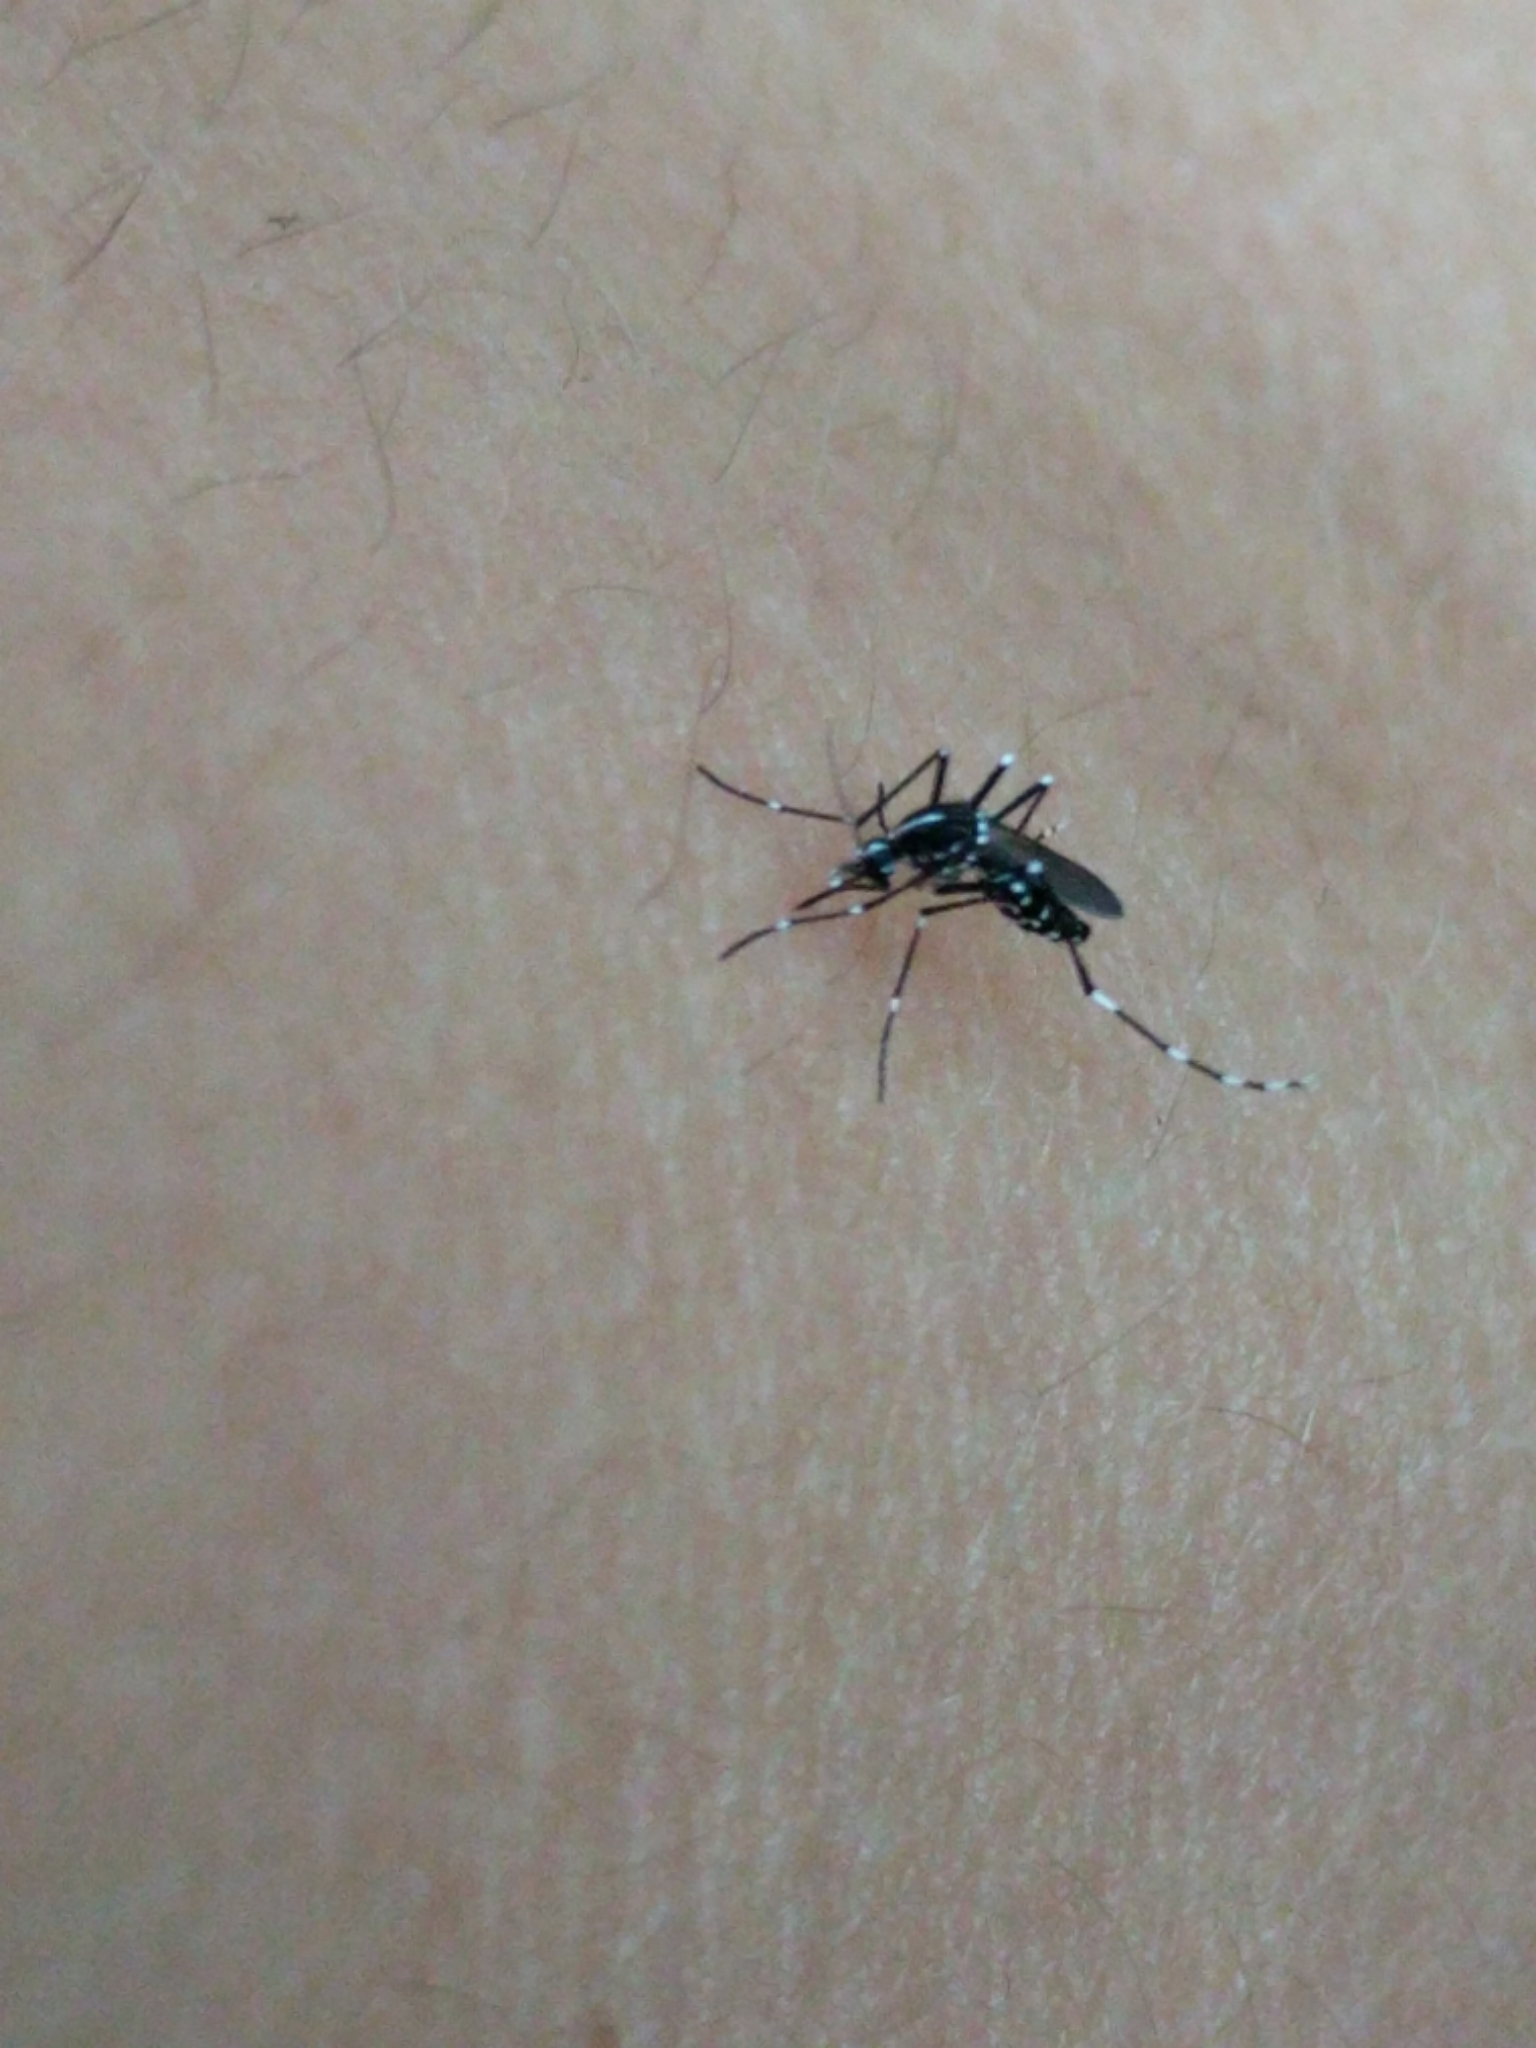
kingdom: Animalia
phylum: Arthropoda
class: Insecta
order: Diptera
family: Culicidae
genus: Aedes
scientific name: Aedes albopictus
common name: Tiger mosquito
